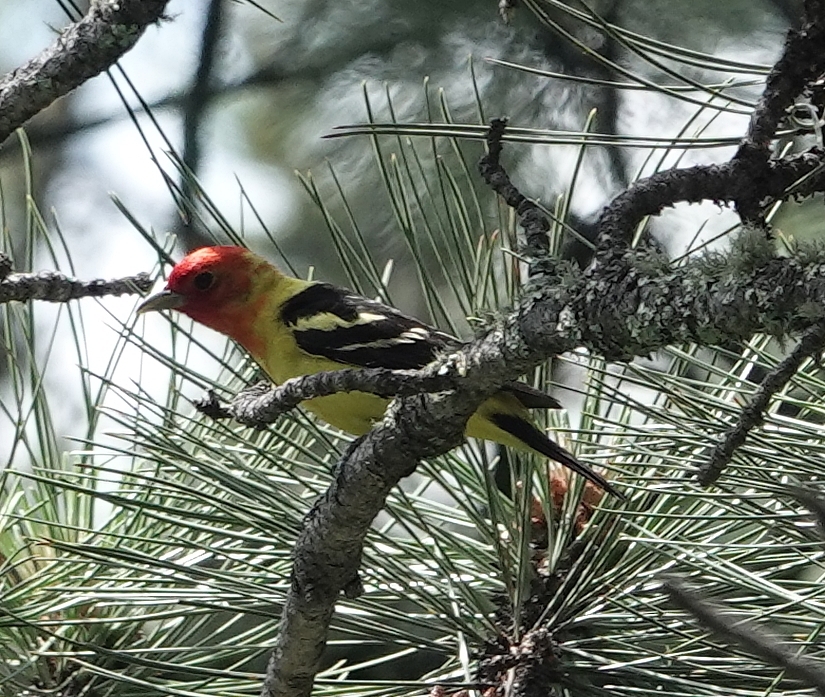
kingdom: Animalia
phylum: Chordata
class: Aves
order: Passeriformes
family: Cardinalidae
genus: Piranga
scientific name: Piranga ludoviciana
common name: Western tanager
